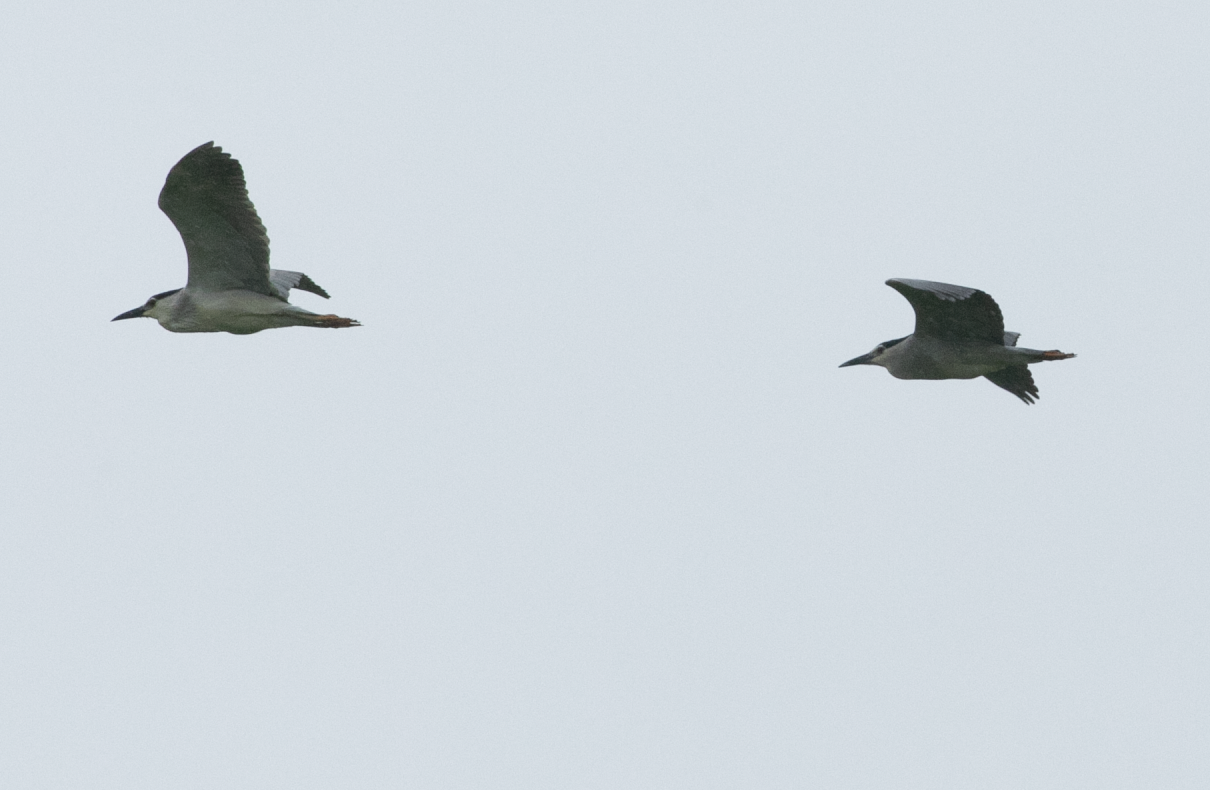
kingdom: Animalia
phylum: Chordata
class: Aves
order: Pelecaniformes
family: Ardeidae
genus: Nycticorax
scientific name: Nycticorax nycticorax
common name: Black-crowned night heron
